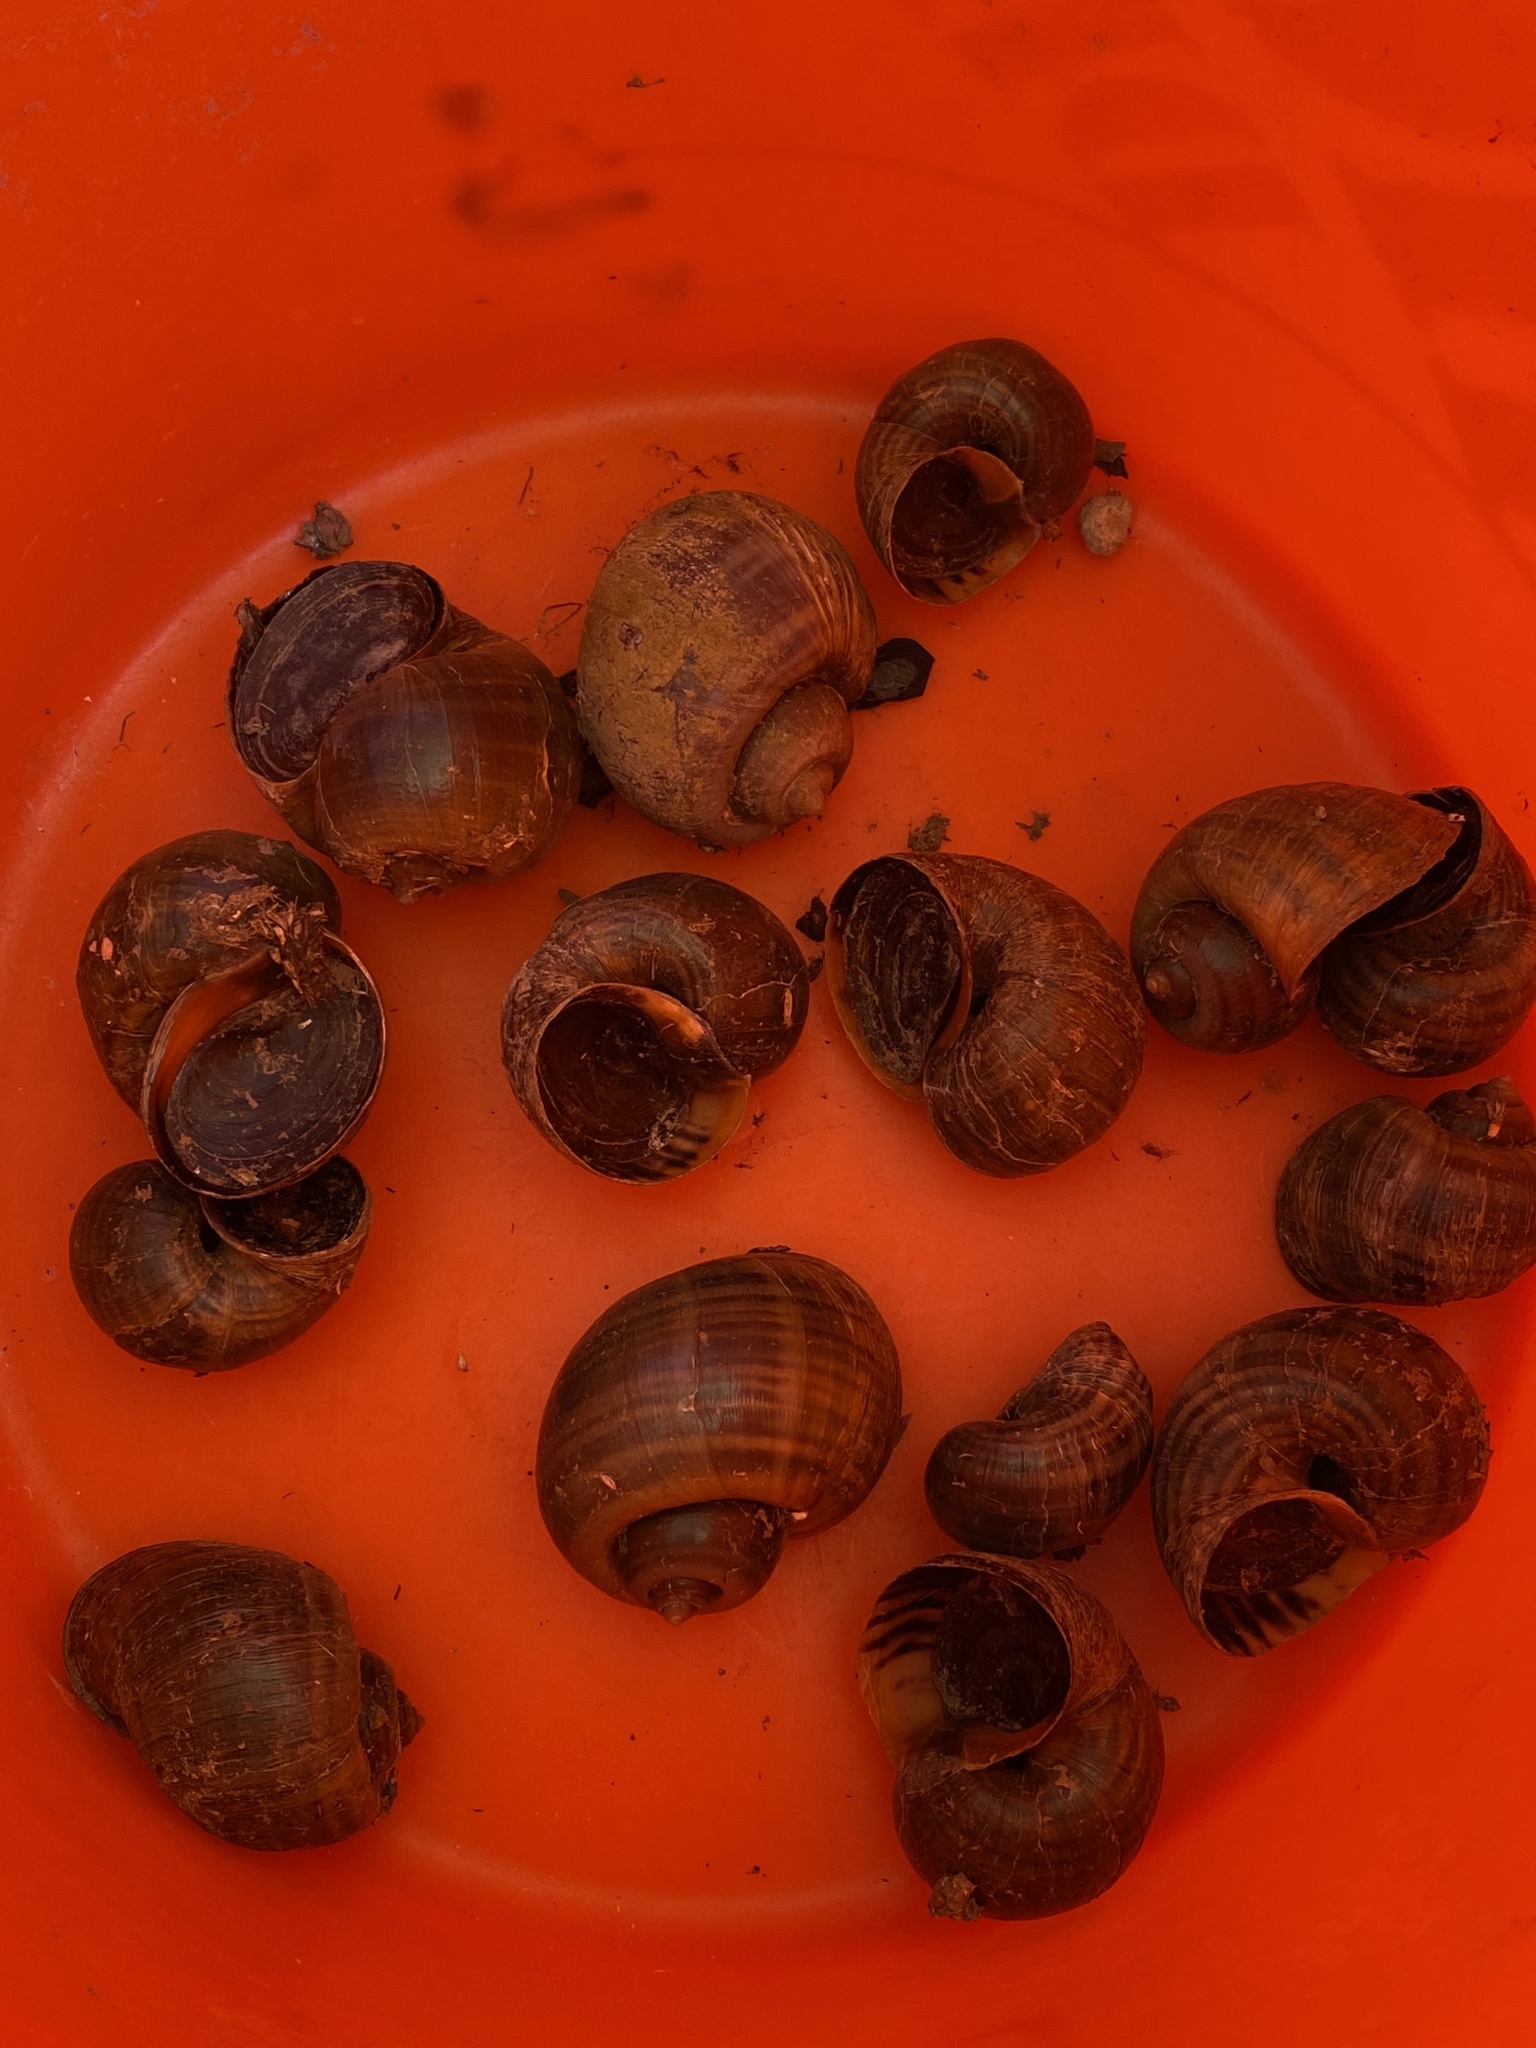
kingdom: Animalia
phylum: Mollusca
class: Gastropoda
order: Architaenioglossa
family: Ampullariidae
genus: Pomacea
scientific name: Pomacea canaliculata
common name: Channeled applesnail
